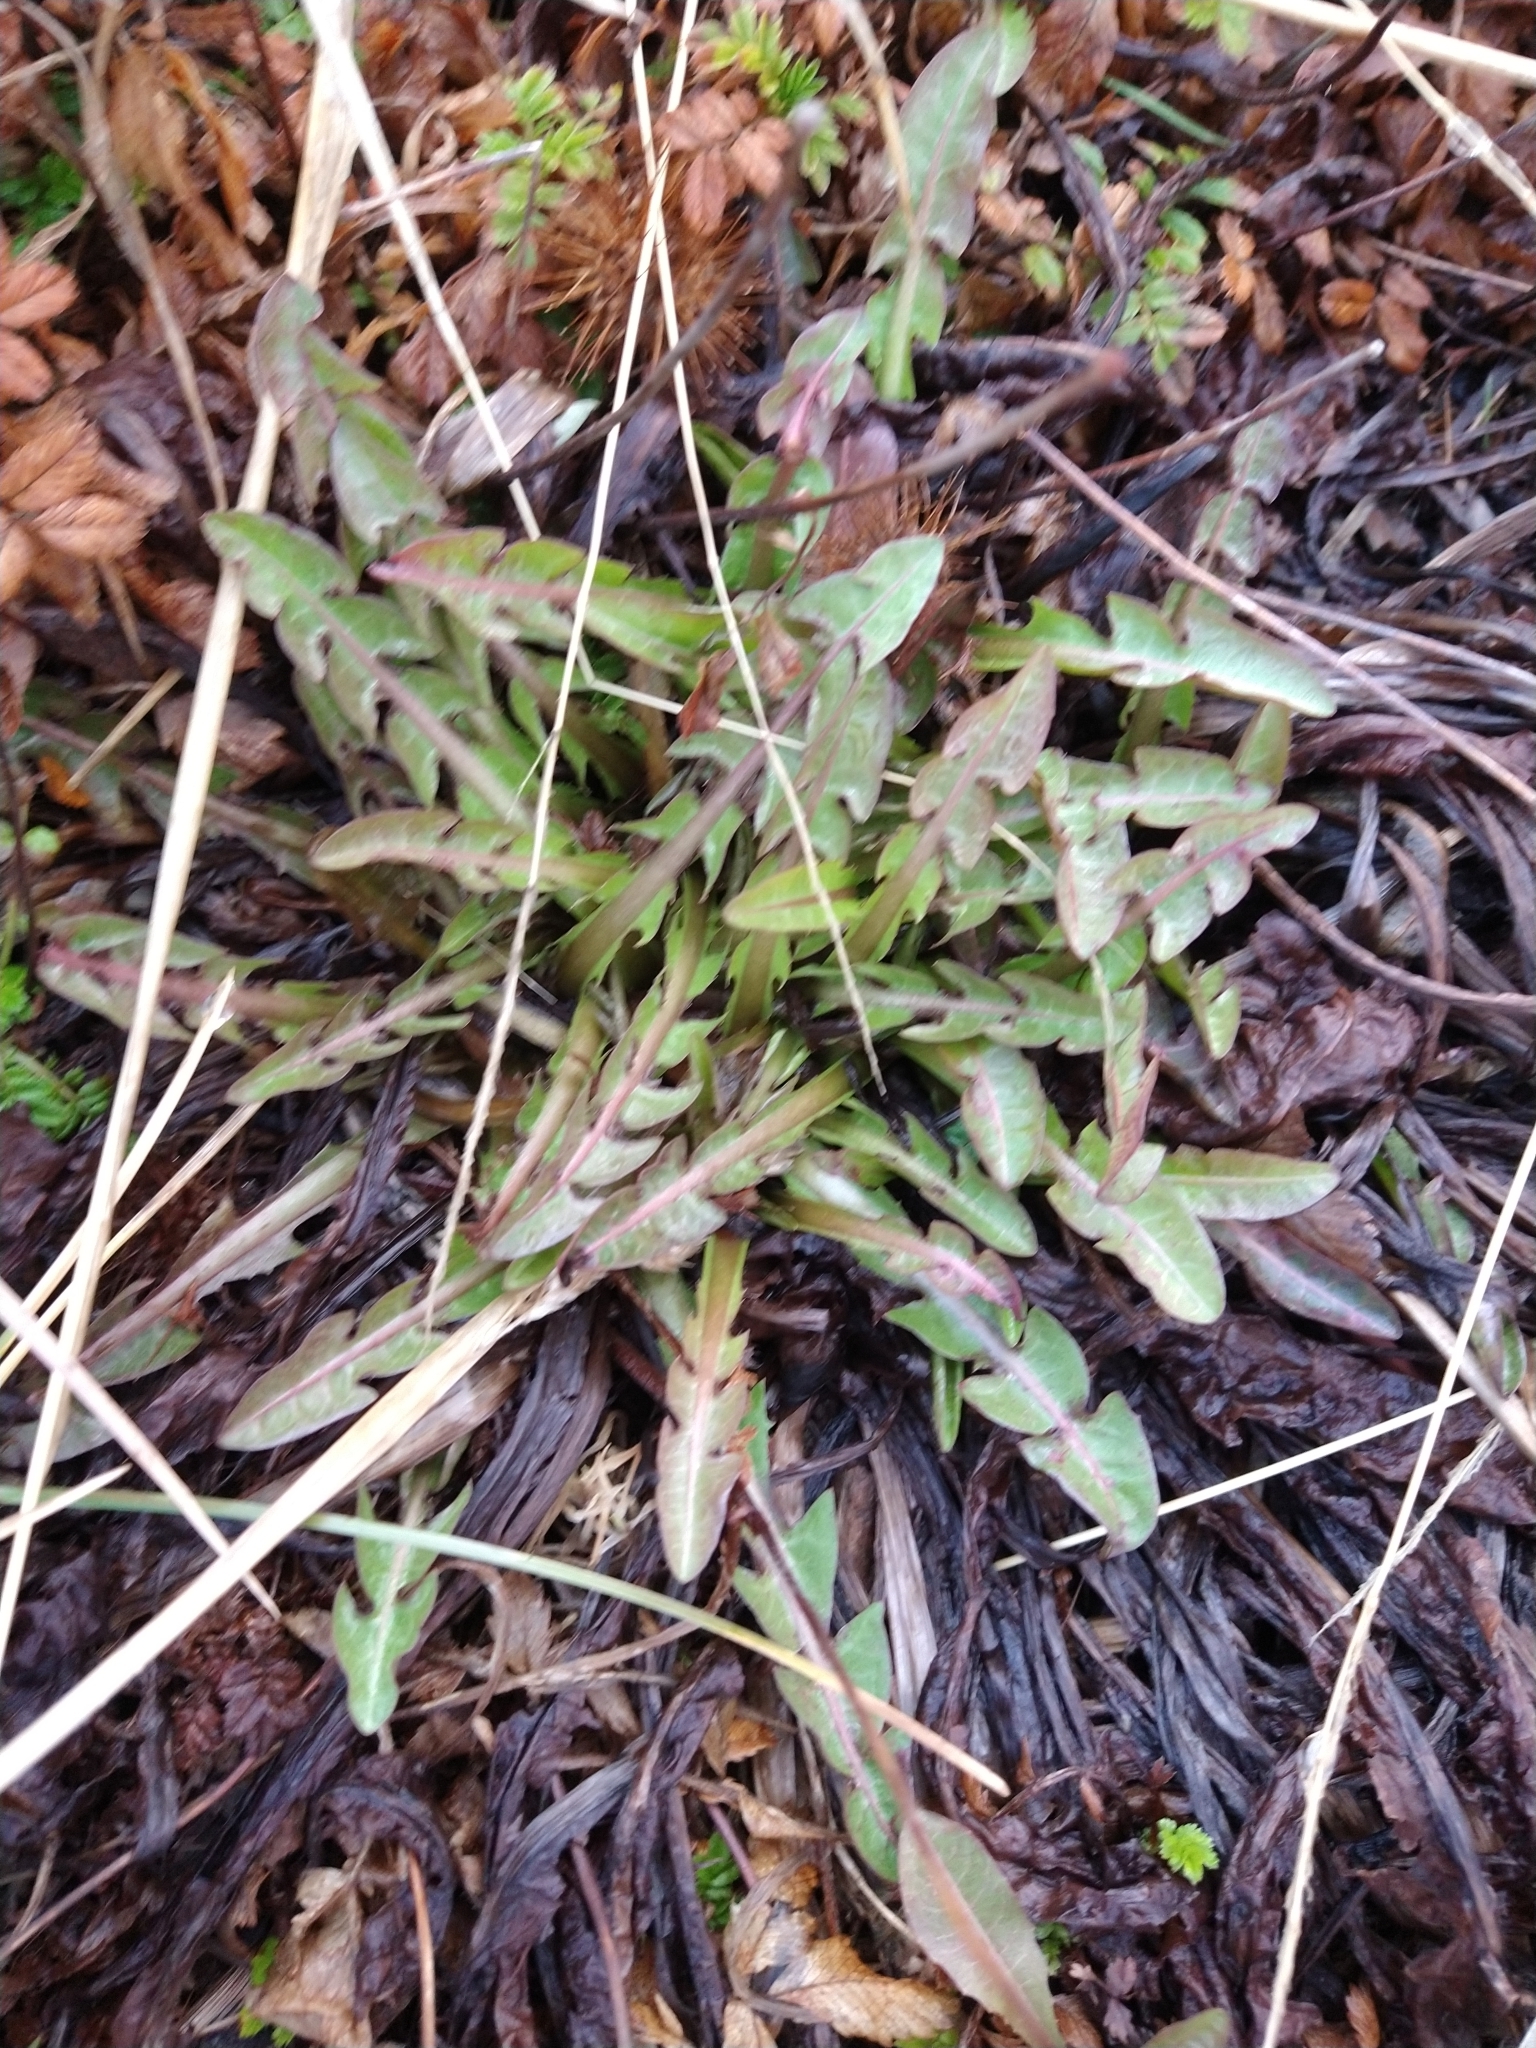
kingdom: Plantae
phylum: Tracheophyta
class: Magnoliopsida
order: Asterales
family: Asteraceae
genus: Taraxacum
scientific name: Taraxacum officinale
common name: Common dandelion
